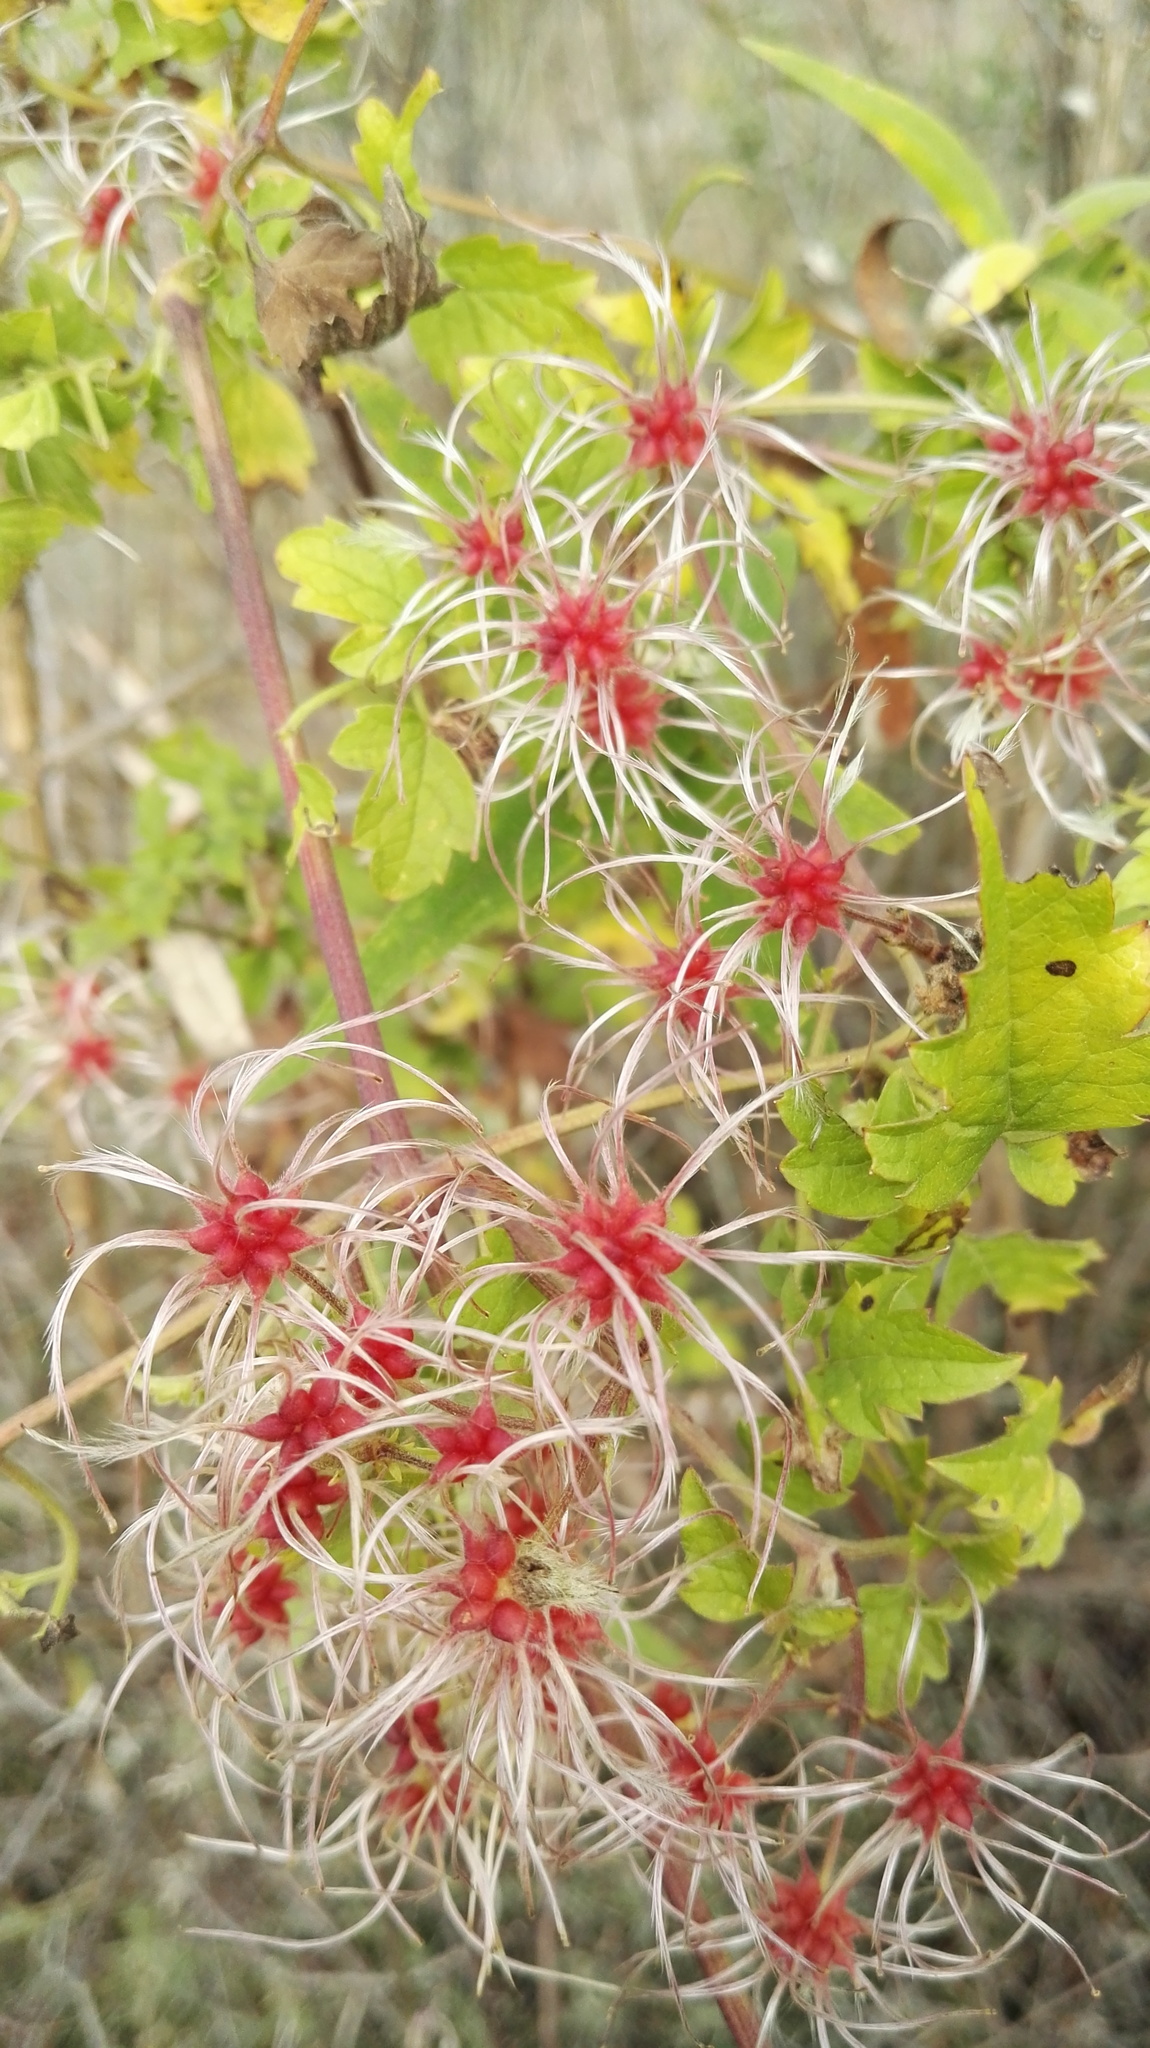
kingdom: Plantae
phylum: Tracheophyta
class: Magnoliopsida
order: Ranunculales
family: Ranunculaceae
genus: Clematis
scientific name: Clematis brachiata
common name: Traveler's-joy
